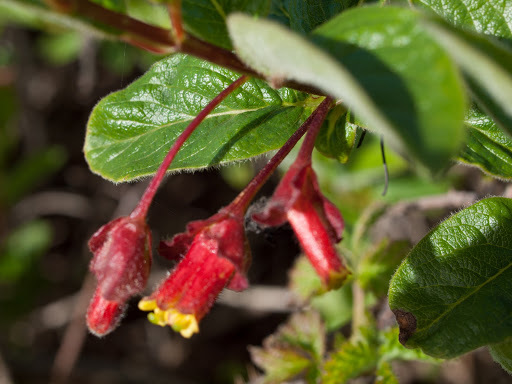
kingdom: Plantae
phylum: Tracheophyta
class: Magnoliopsida
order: Dipsacales
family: Caprifoliaceae
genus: Lonicera
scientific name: Lonicera involucrata
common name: Californian honeysuckle
